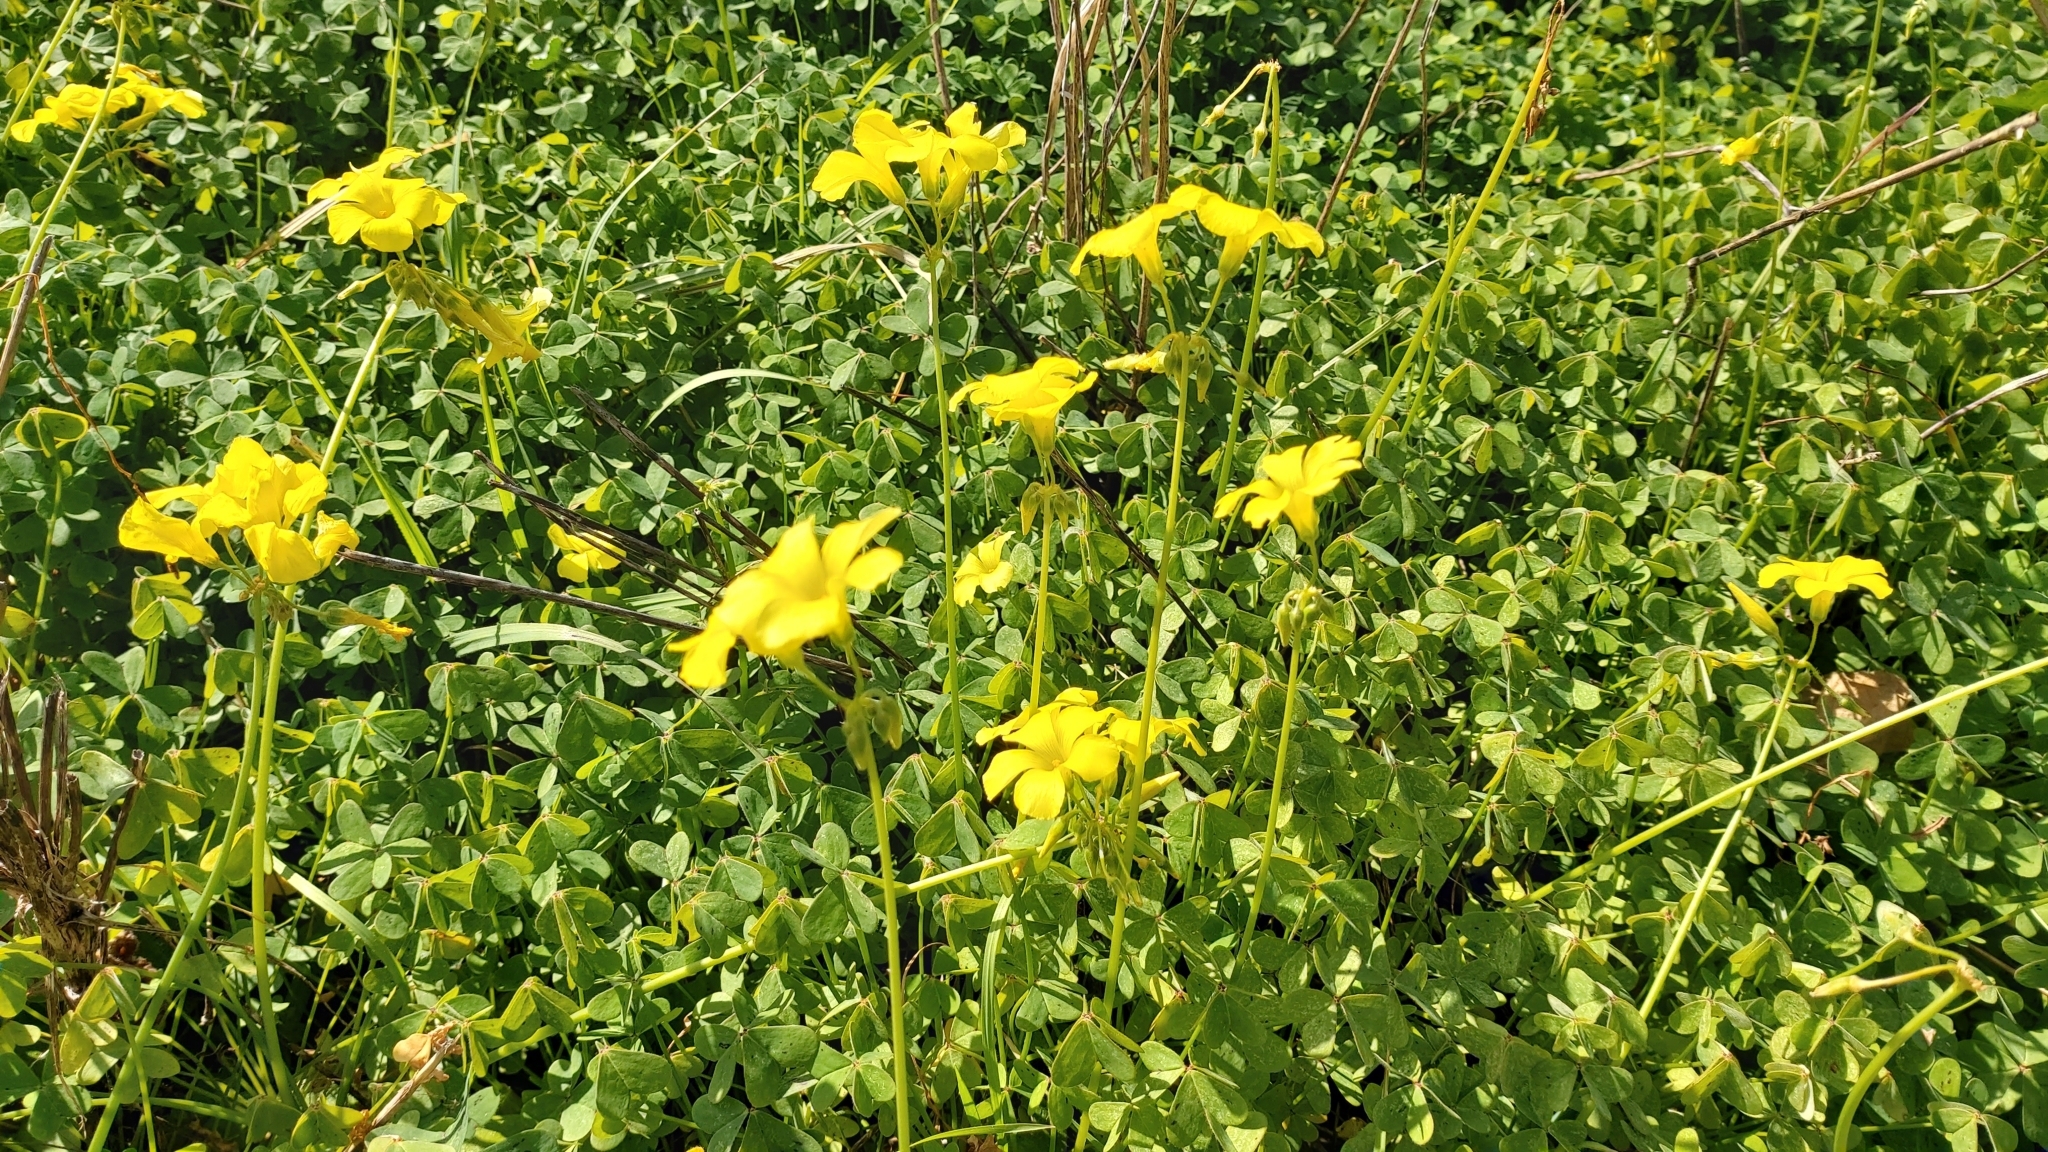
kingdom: Plantae
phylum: Tracheophyta
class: Magnoliopsida
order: Oxalidales
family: Oxalidaceae
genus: Oxalis
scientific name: Oxalis pes-caprae
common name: Bermuda-buttercup
